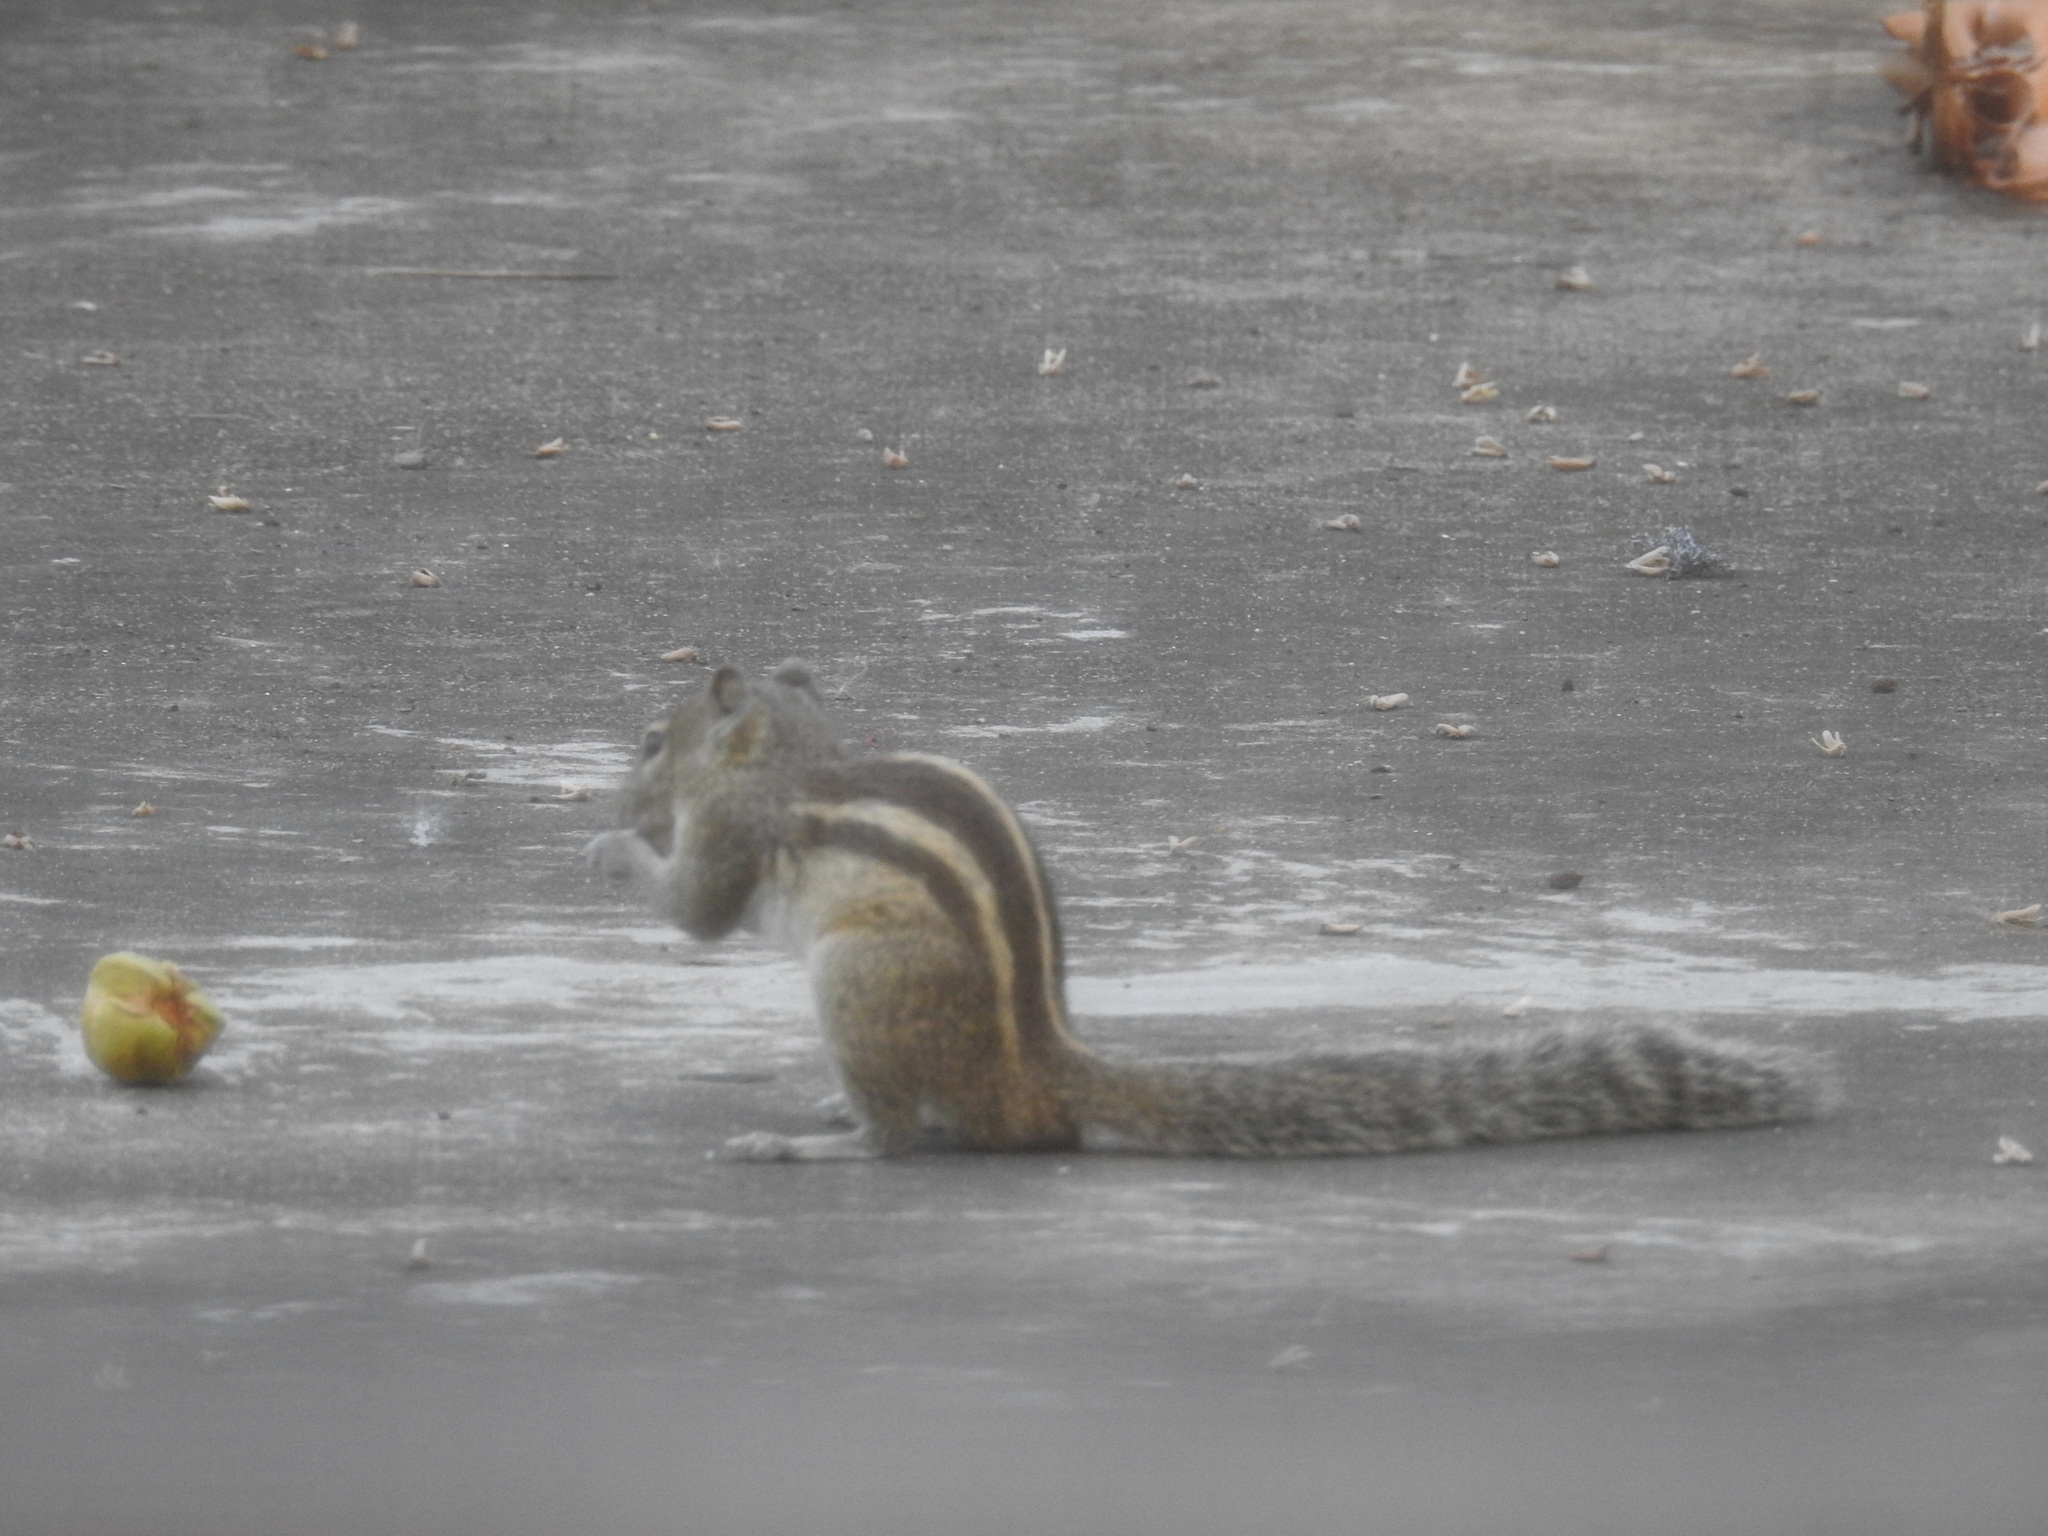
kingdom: Animalia
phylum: Chordata
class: Mammalia
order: Rodentia
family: Sciuridae
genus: Funambulus
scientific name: Funambulus palmarum
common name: Indian palm squirrel
